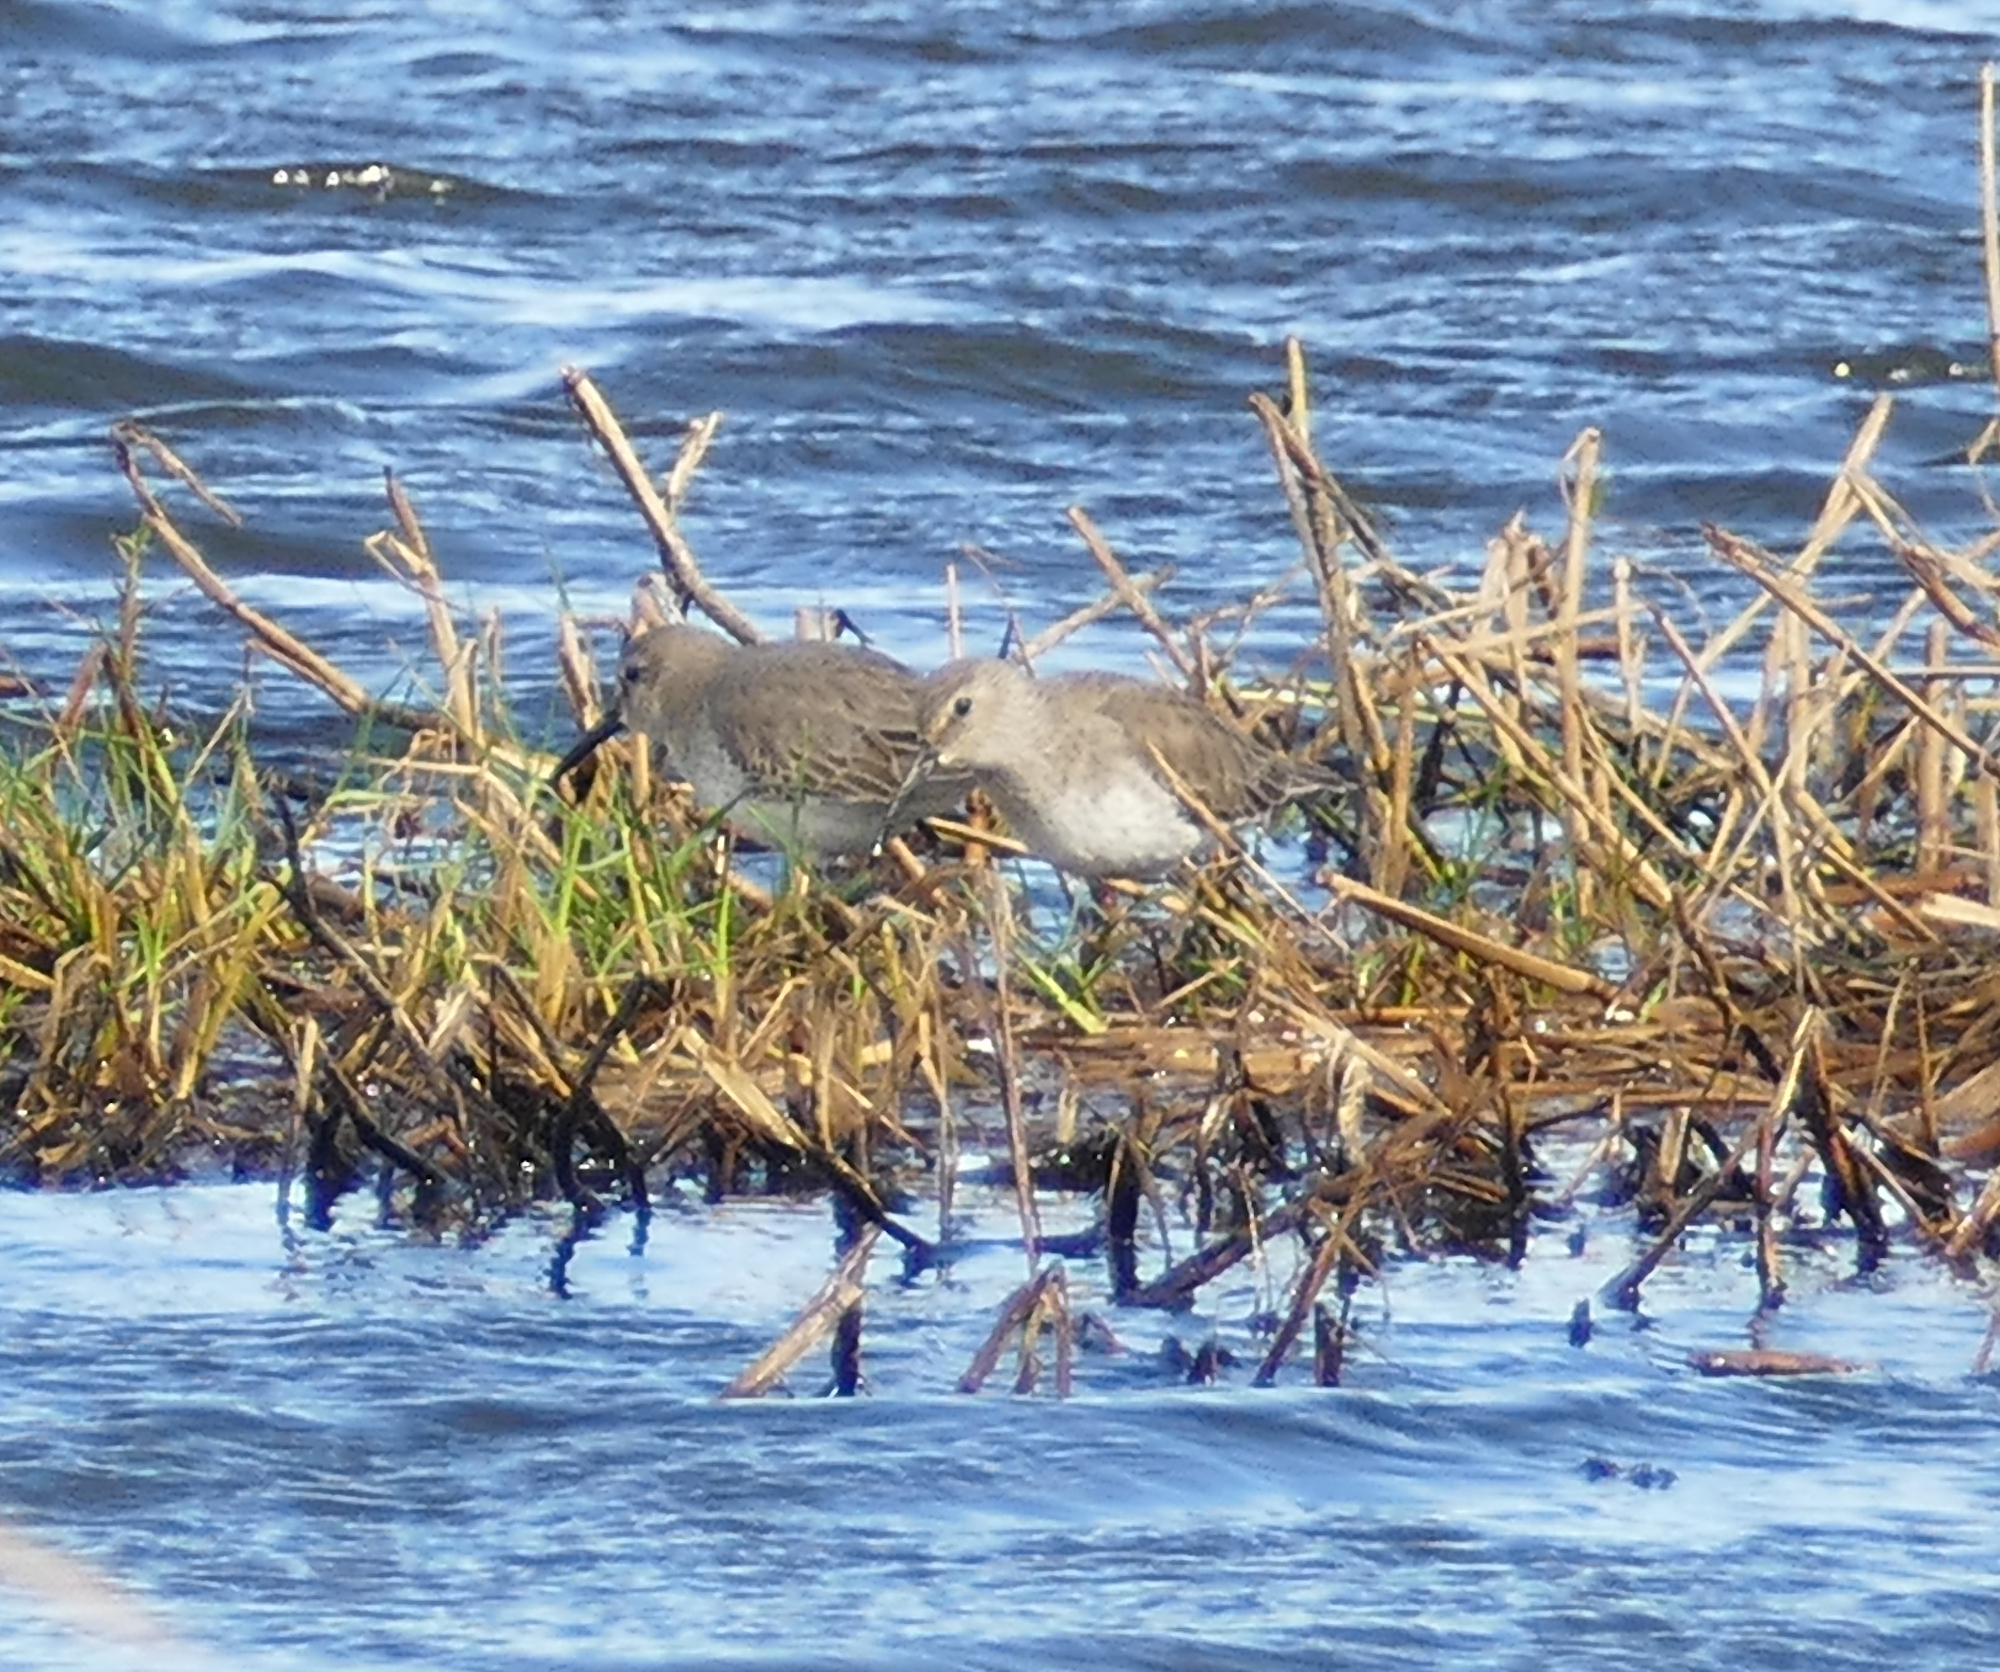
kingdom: Animalia
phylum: Chordata
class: Aves
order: Charadriiformes
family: Scolopacidae
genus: Calidris
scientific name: Calidris alpina
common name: Dunlin
